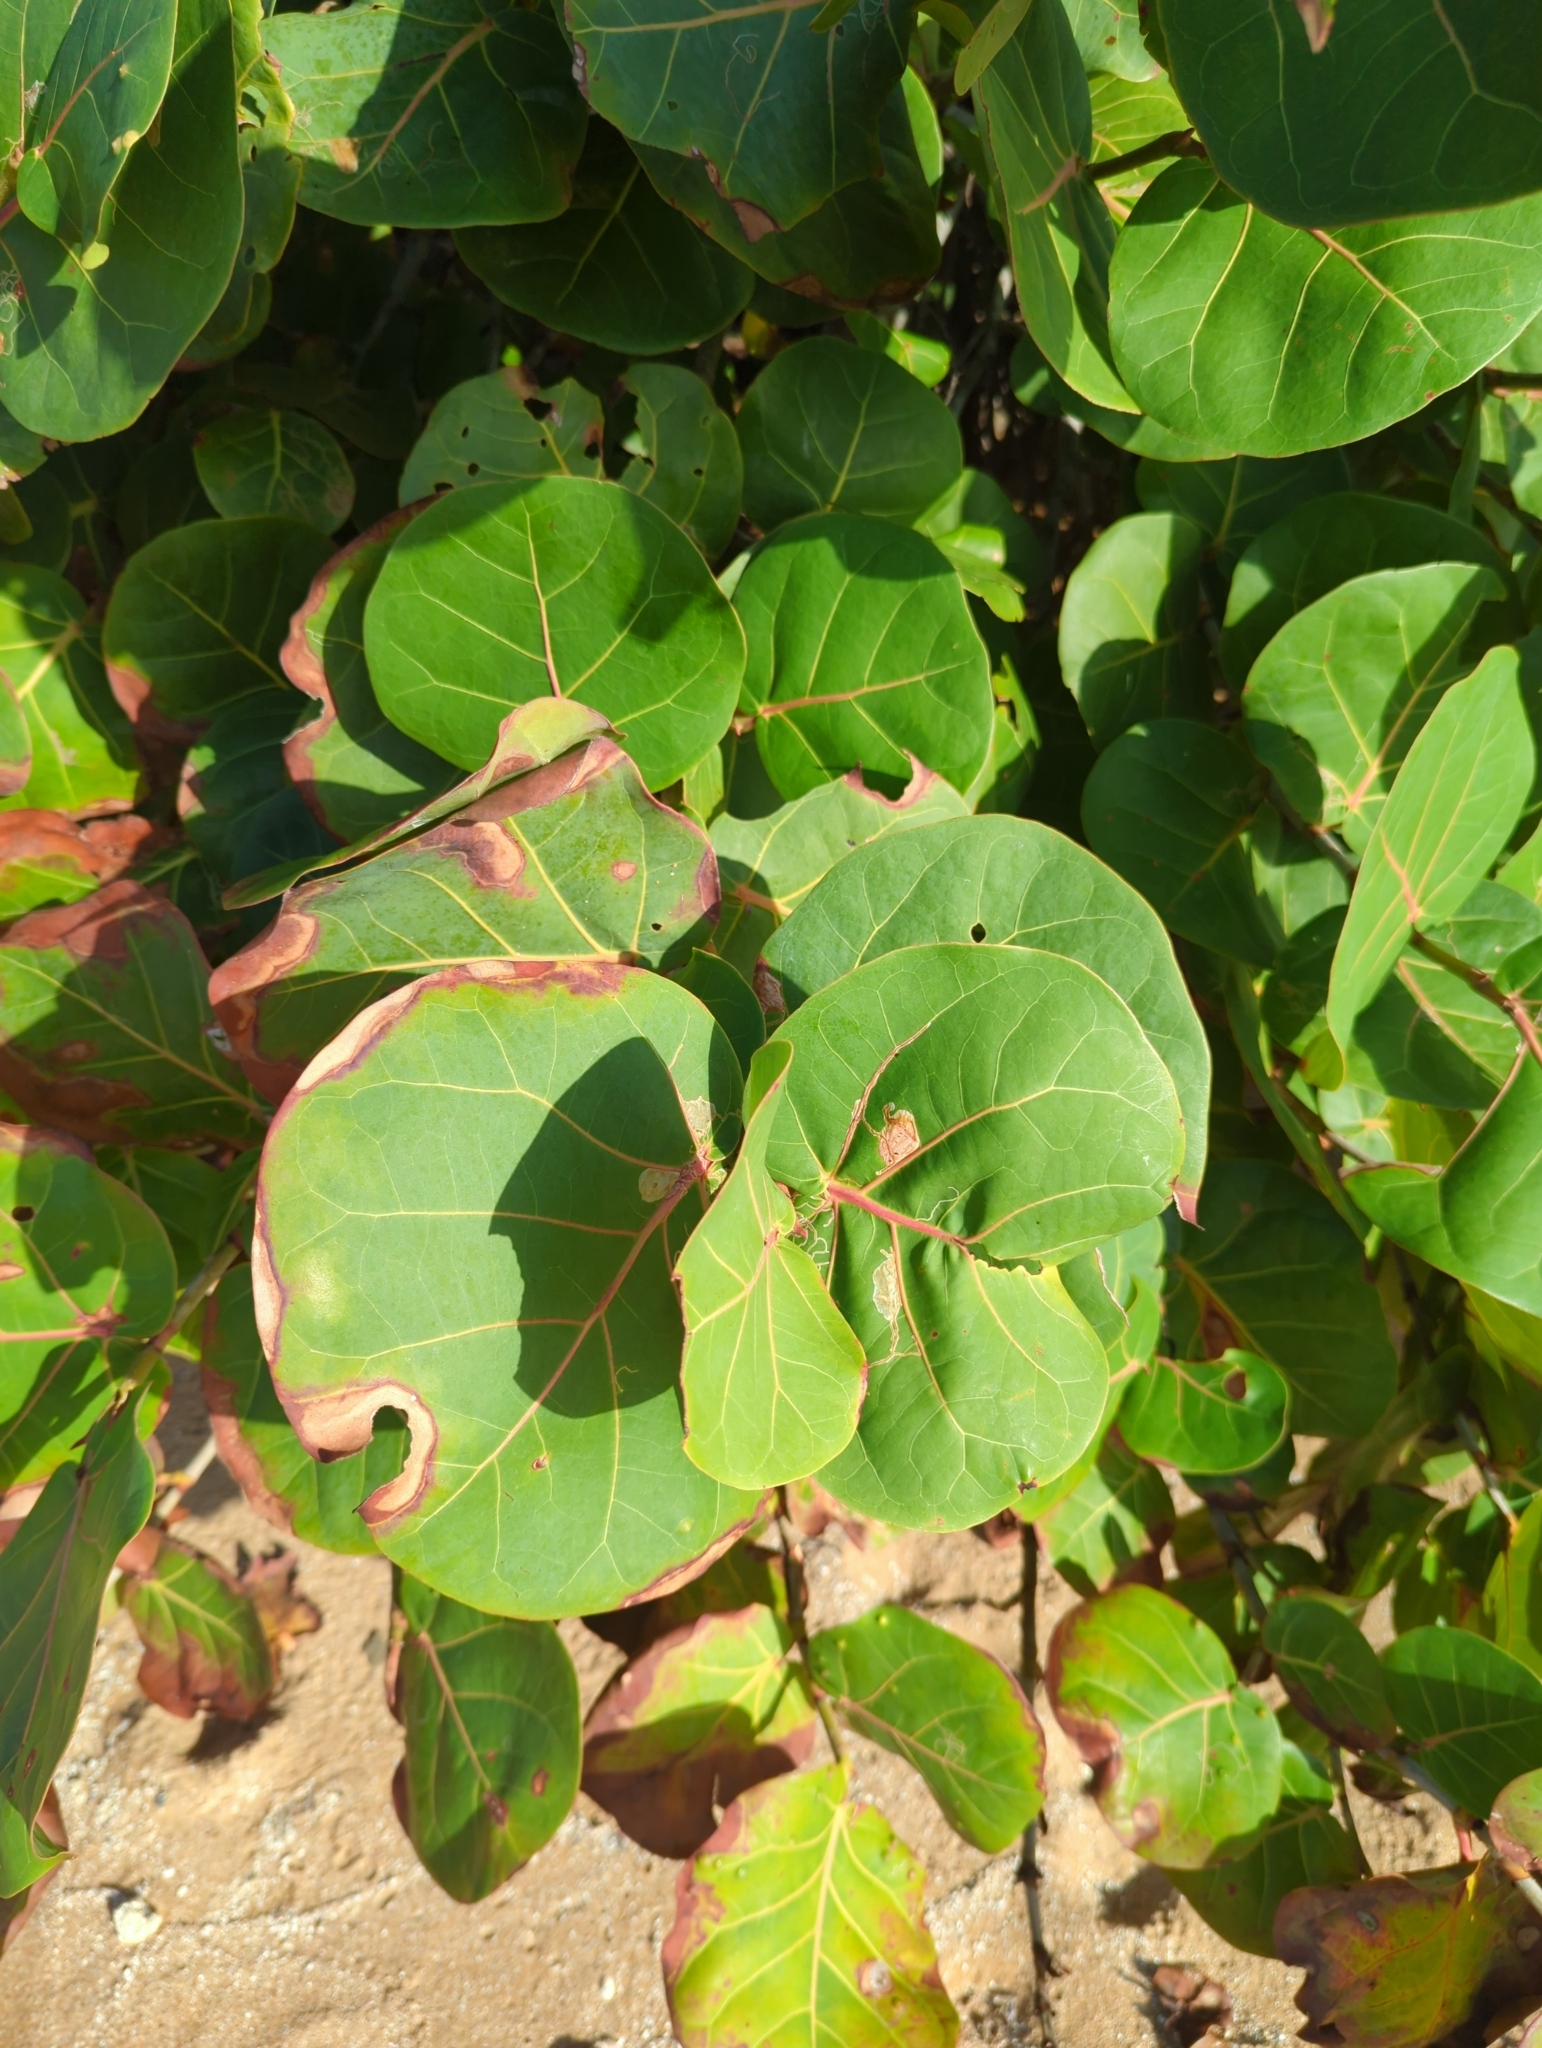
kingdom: Plantae
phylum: Tracheophyta
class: Magnoliopsida
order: Caryophyllales
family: Polygonaceae
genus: Coccoloba
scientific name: Coccoloba uvifera
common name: Seagrape
